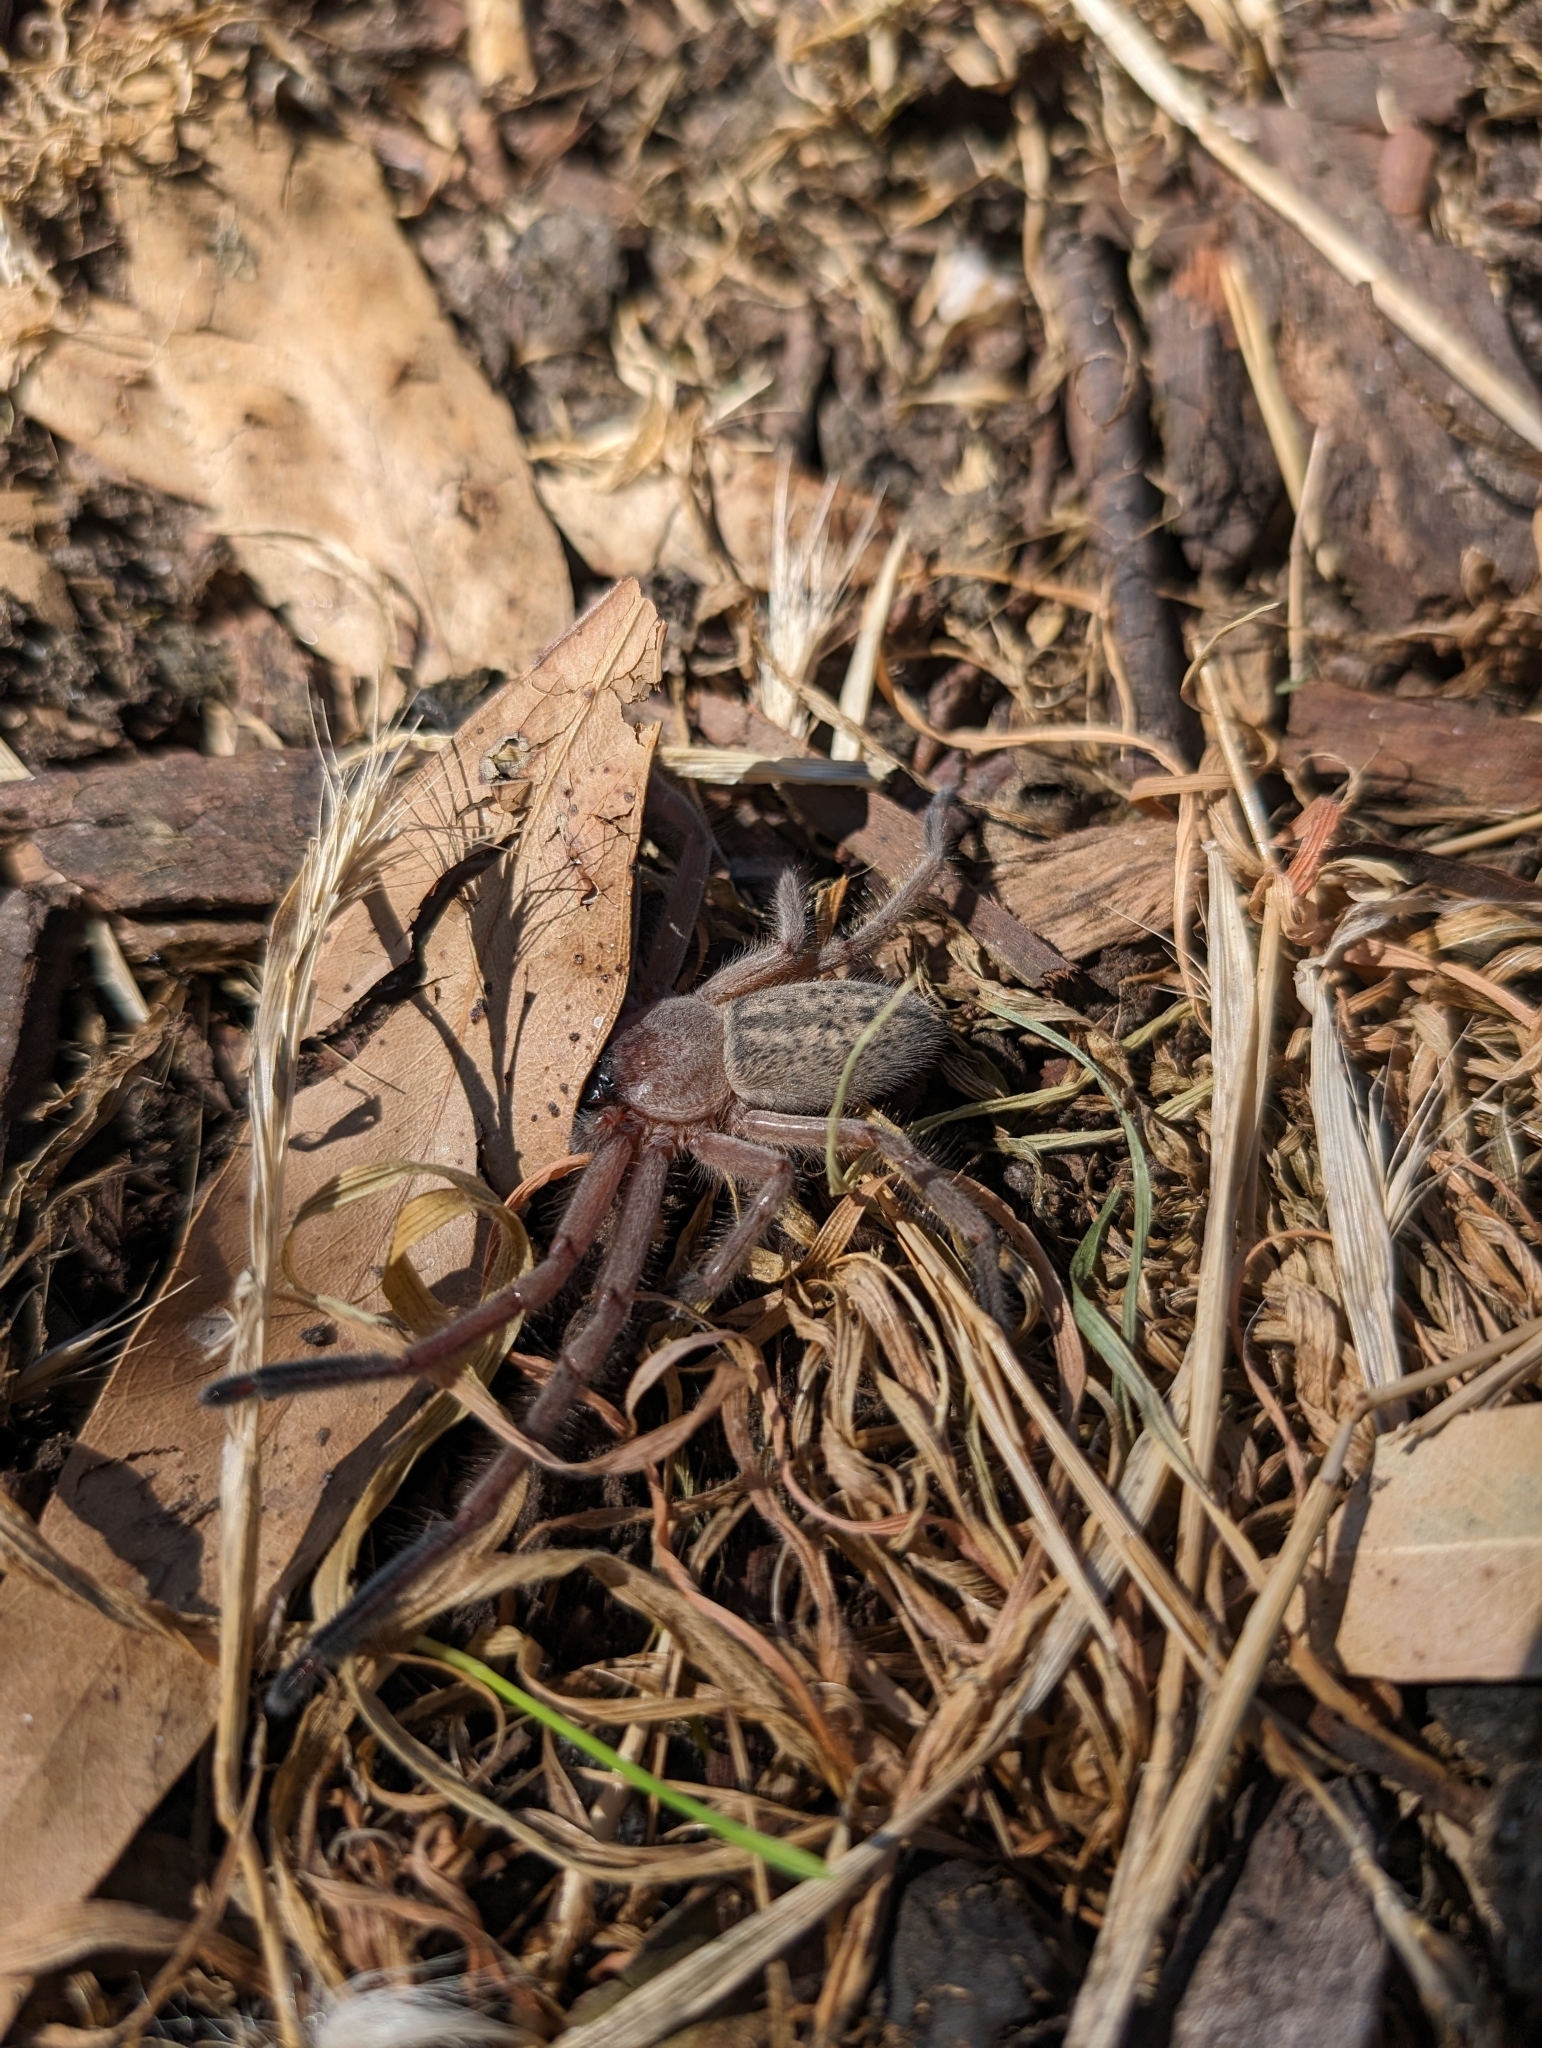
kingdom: Animalia
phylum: Arthropoda
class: Arachnida
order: Araneae
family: Sparassidae
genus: Delena
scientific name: Delena cancerides
